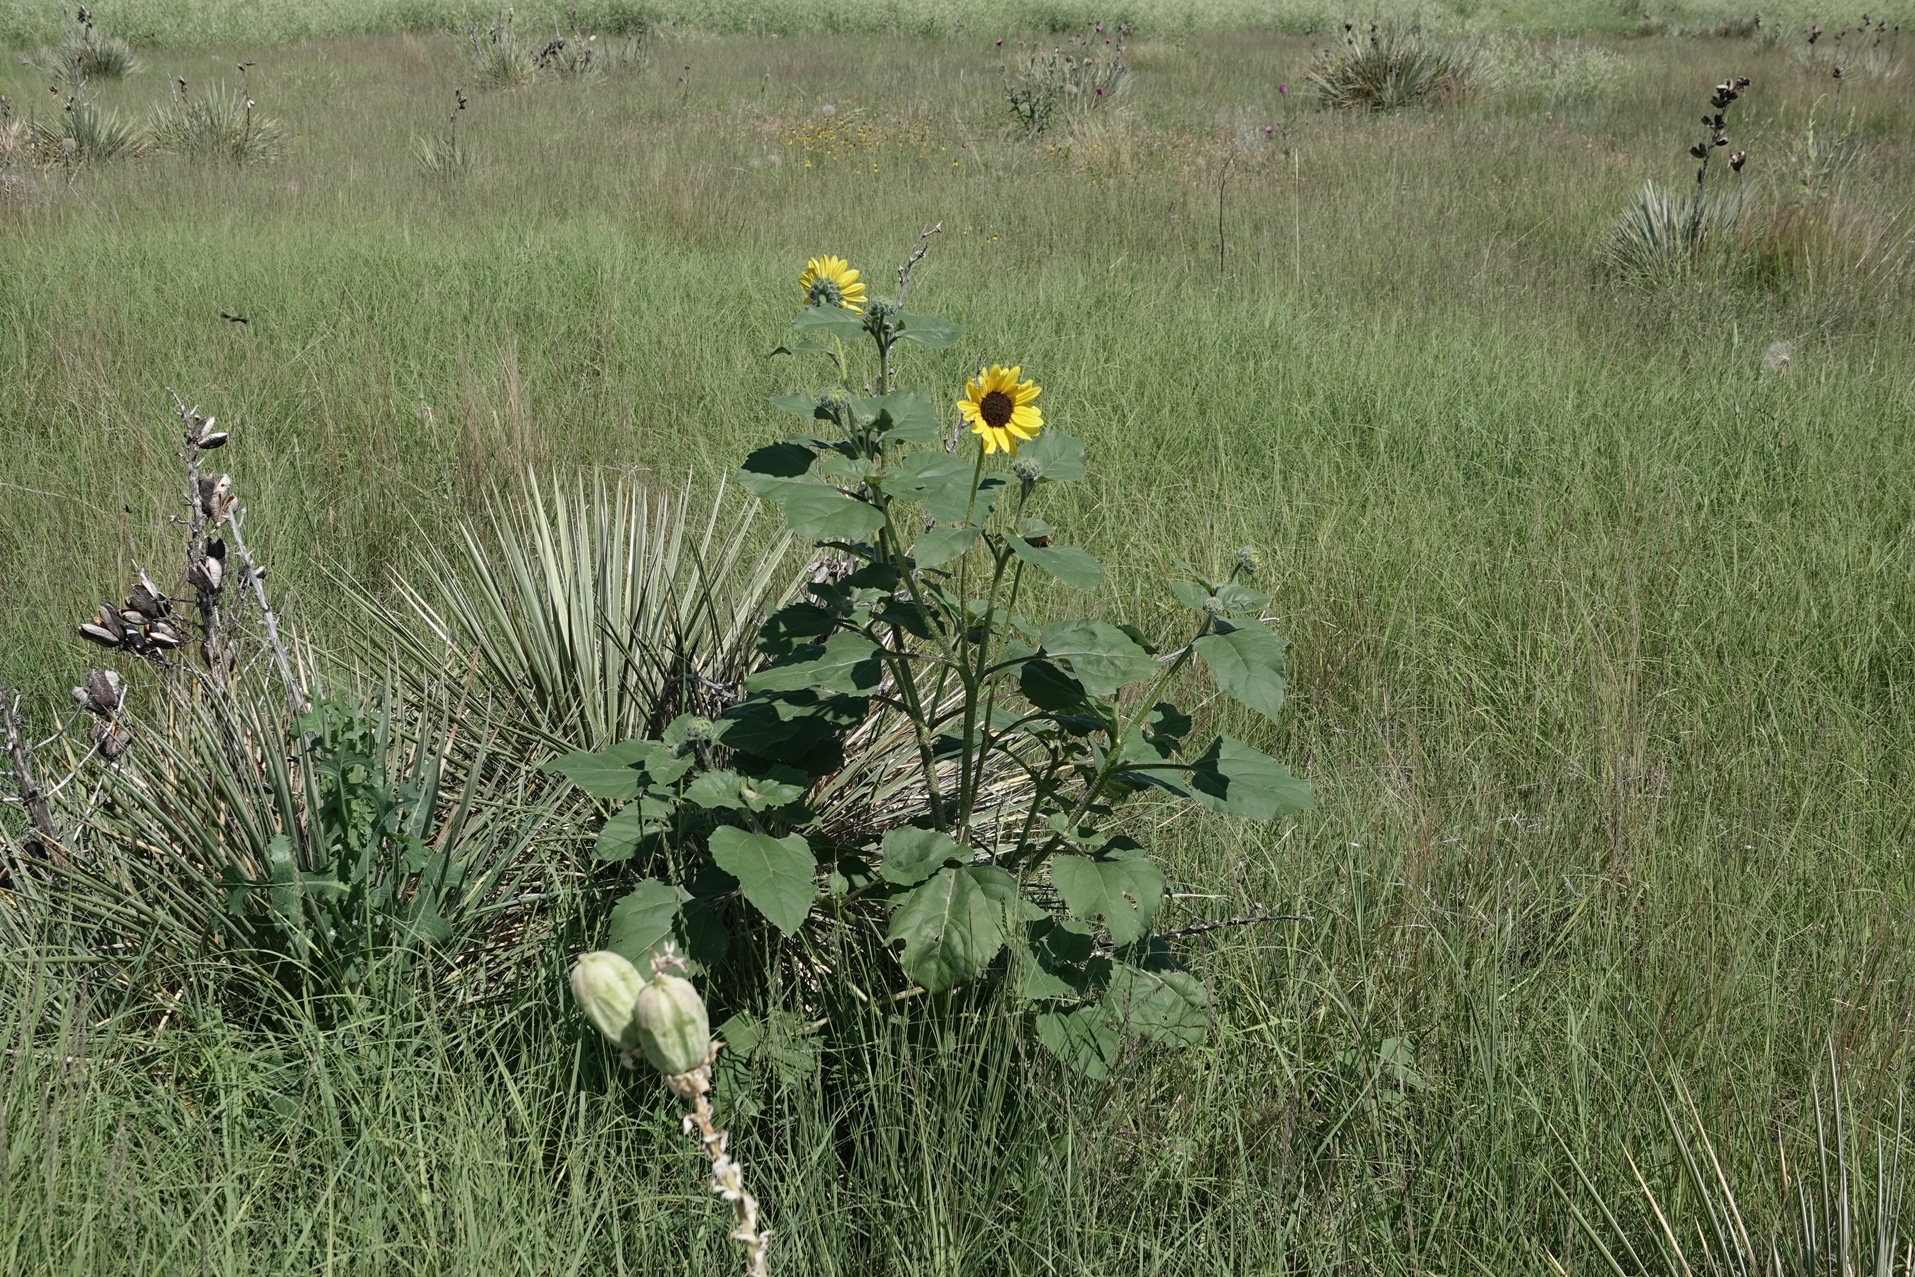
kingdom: Plantae
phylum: Tracheophyta
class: Magnoliopsida
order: Asterales
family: Asteraceae
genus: Helianthus
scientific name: Helianthus annuus
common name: Sunflower
